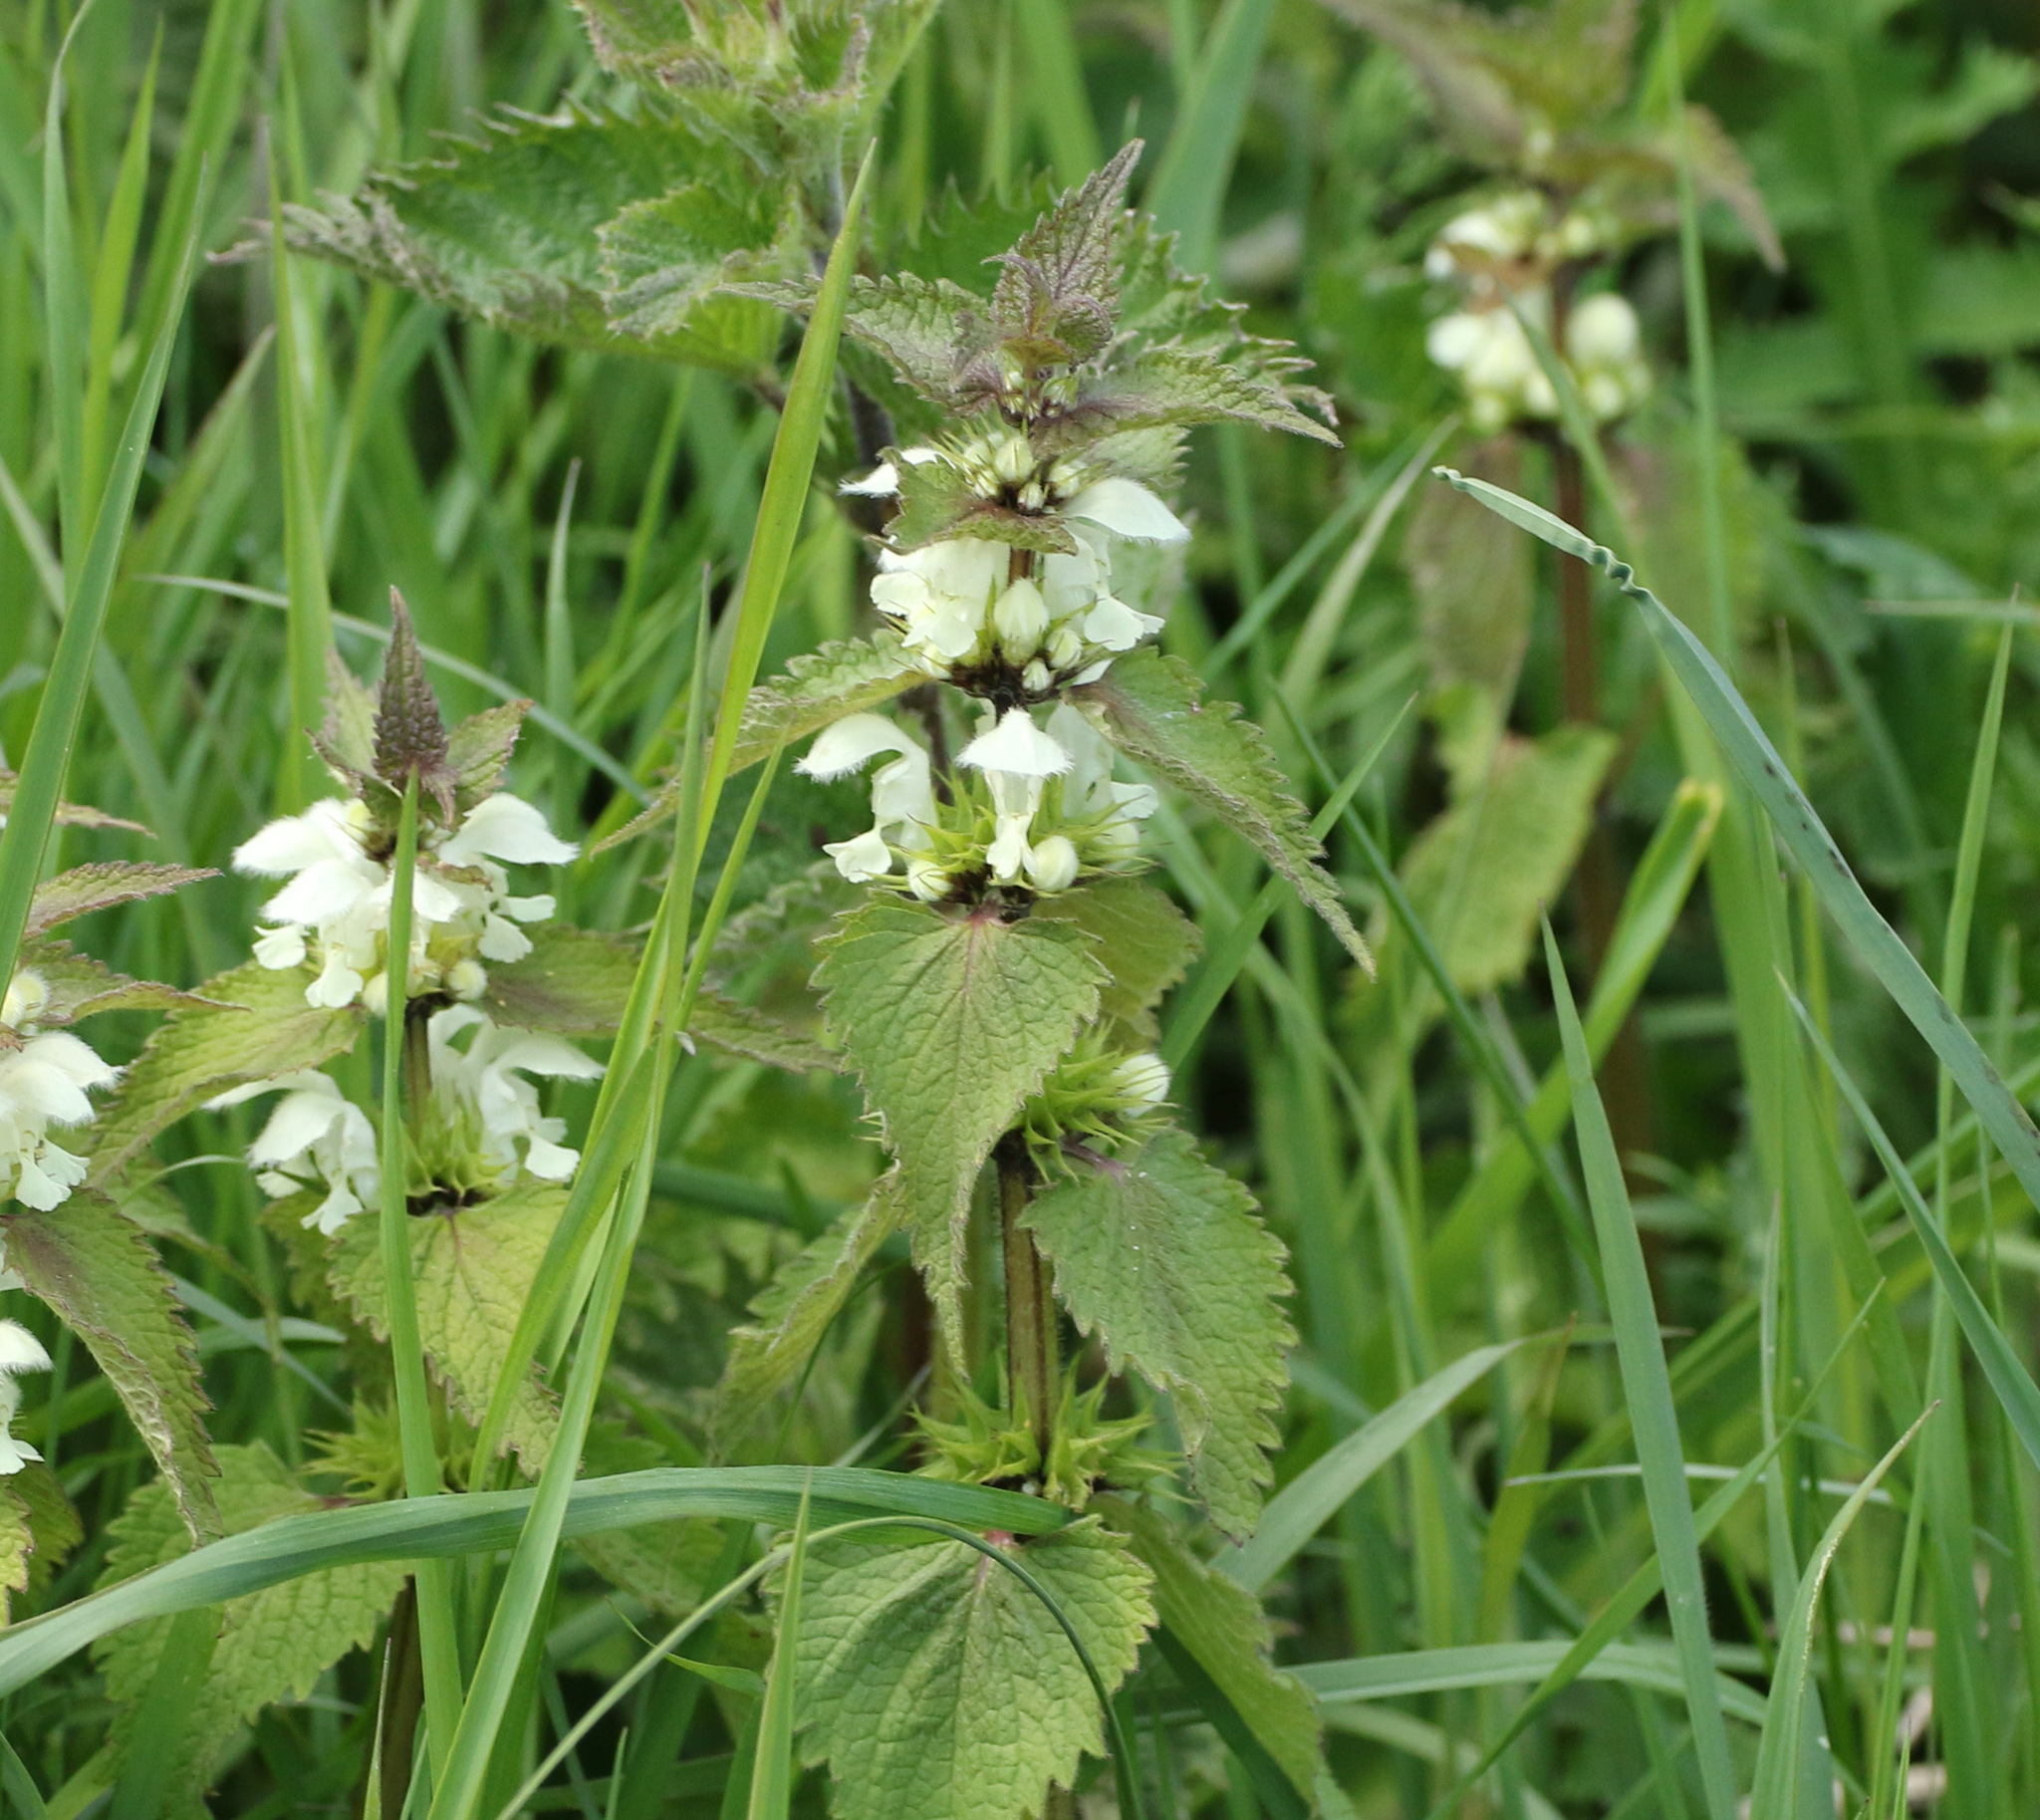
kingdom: Plantae
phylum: Tracheophyta
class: Magnoliopsida
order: Lamiales
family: Lamiaceae
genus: Lamium
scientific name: Lamium album
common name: White dead-nettle
